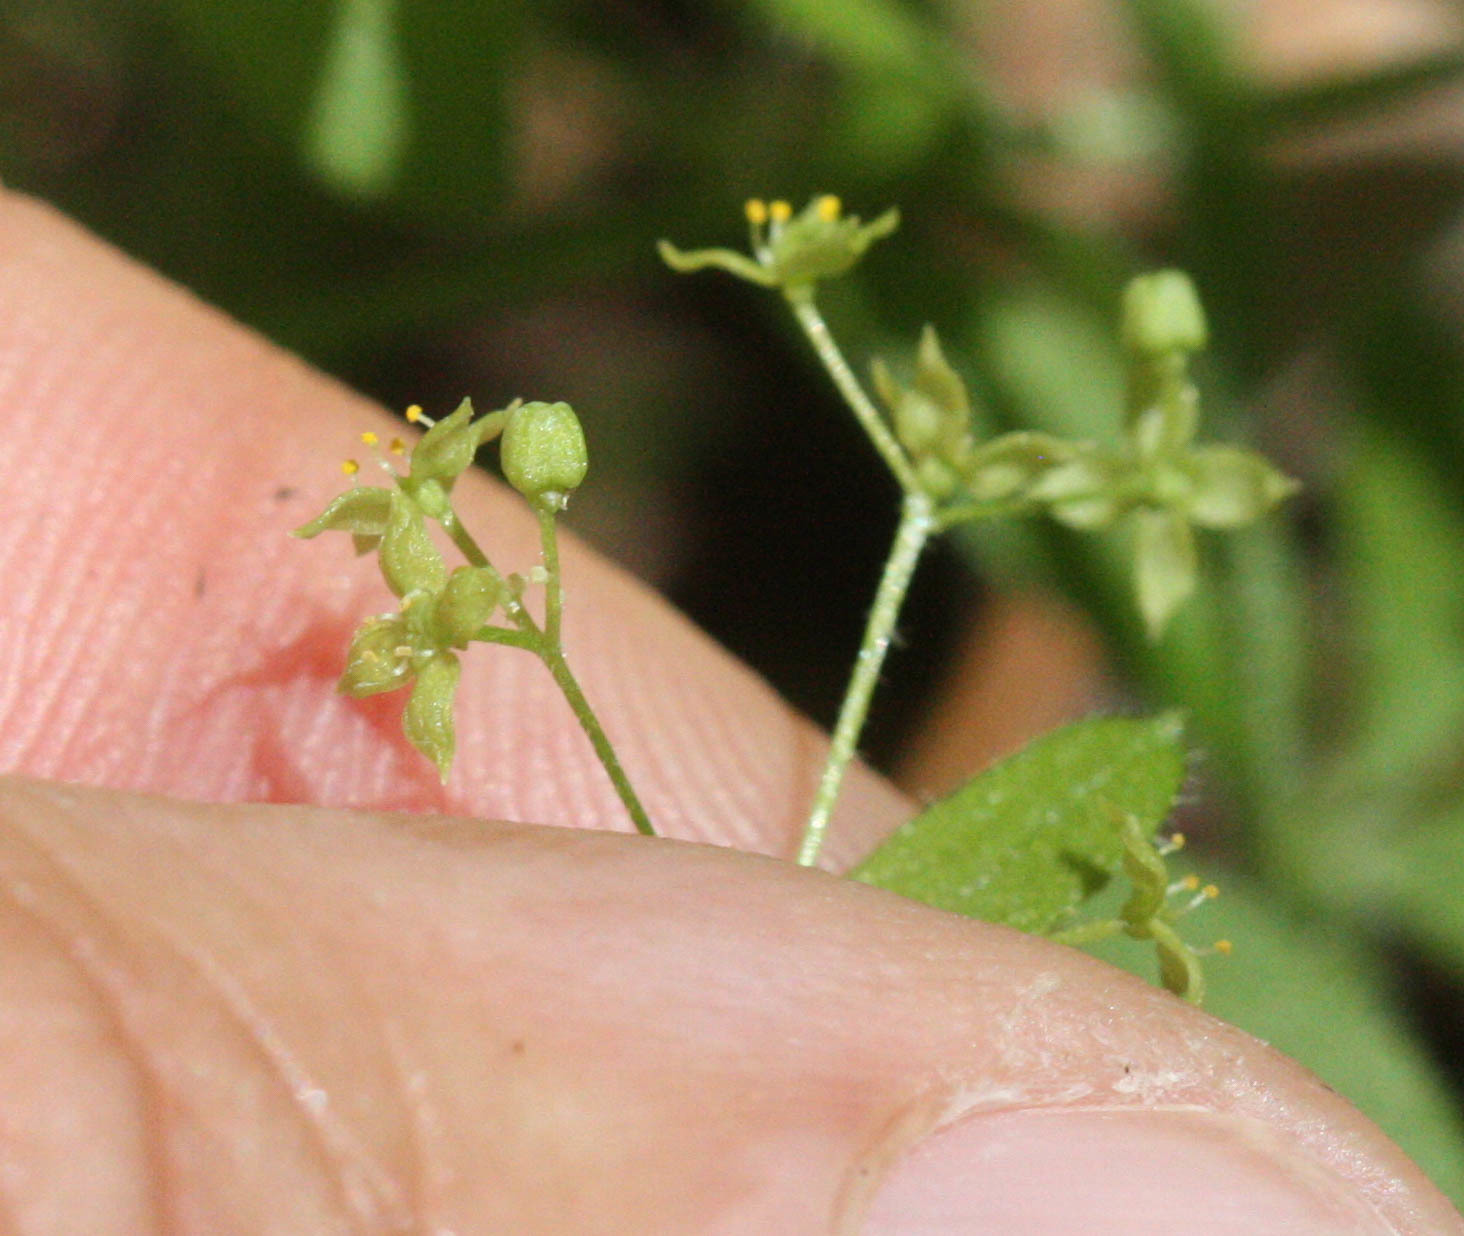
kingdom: Plantae
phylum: Tracheophyta
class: Magnoliopsida
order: Gentianales
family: Rubiaceae
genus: Galium
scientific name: Galium porrigens
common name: Climbing bedstraw
